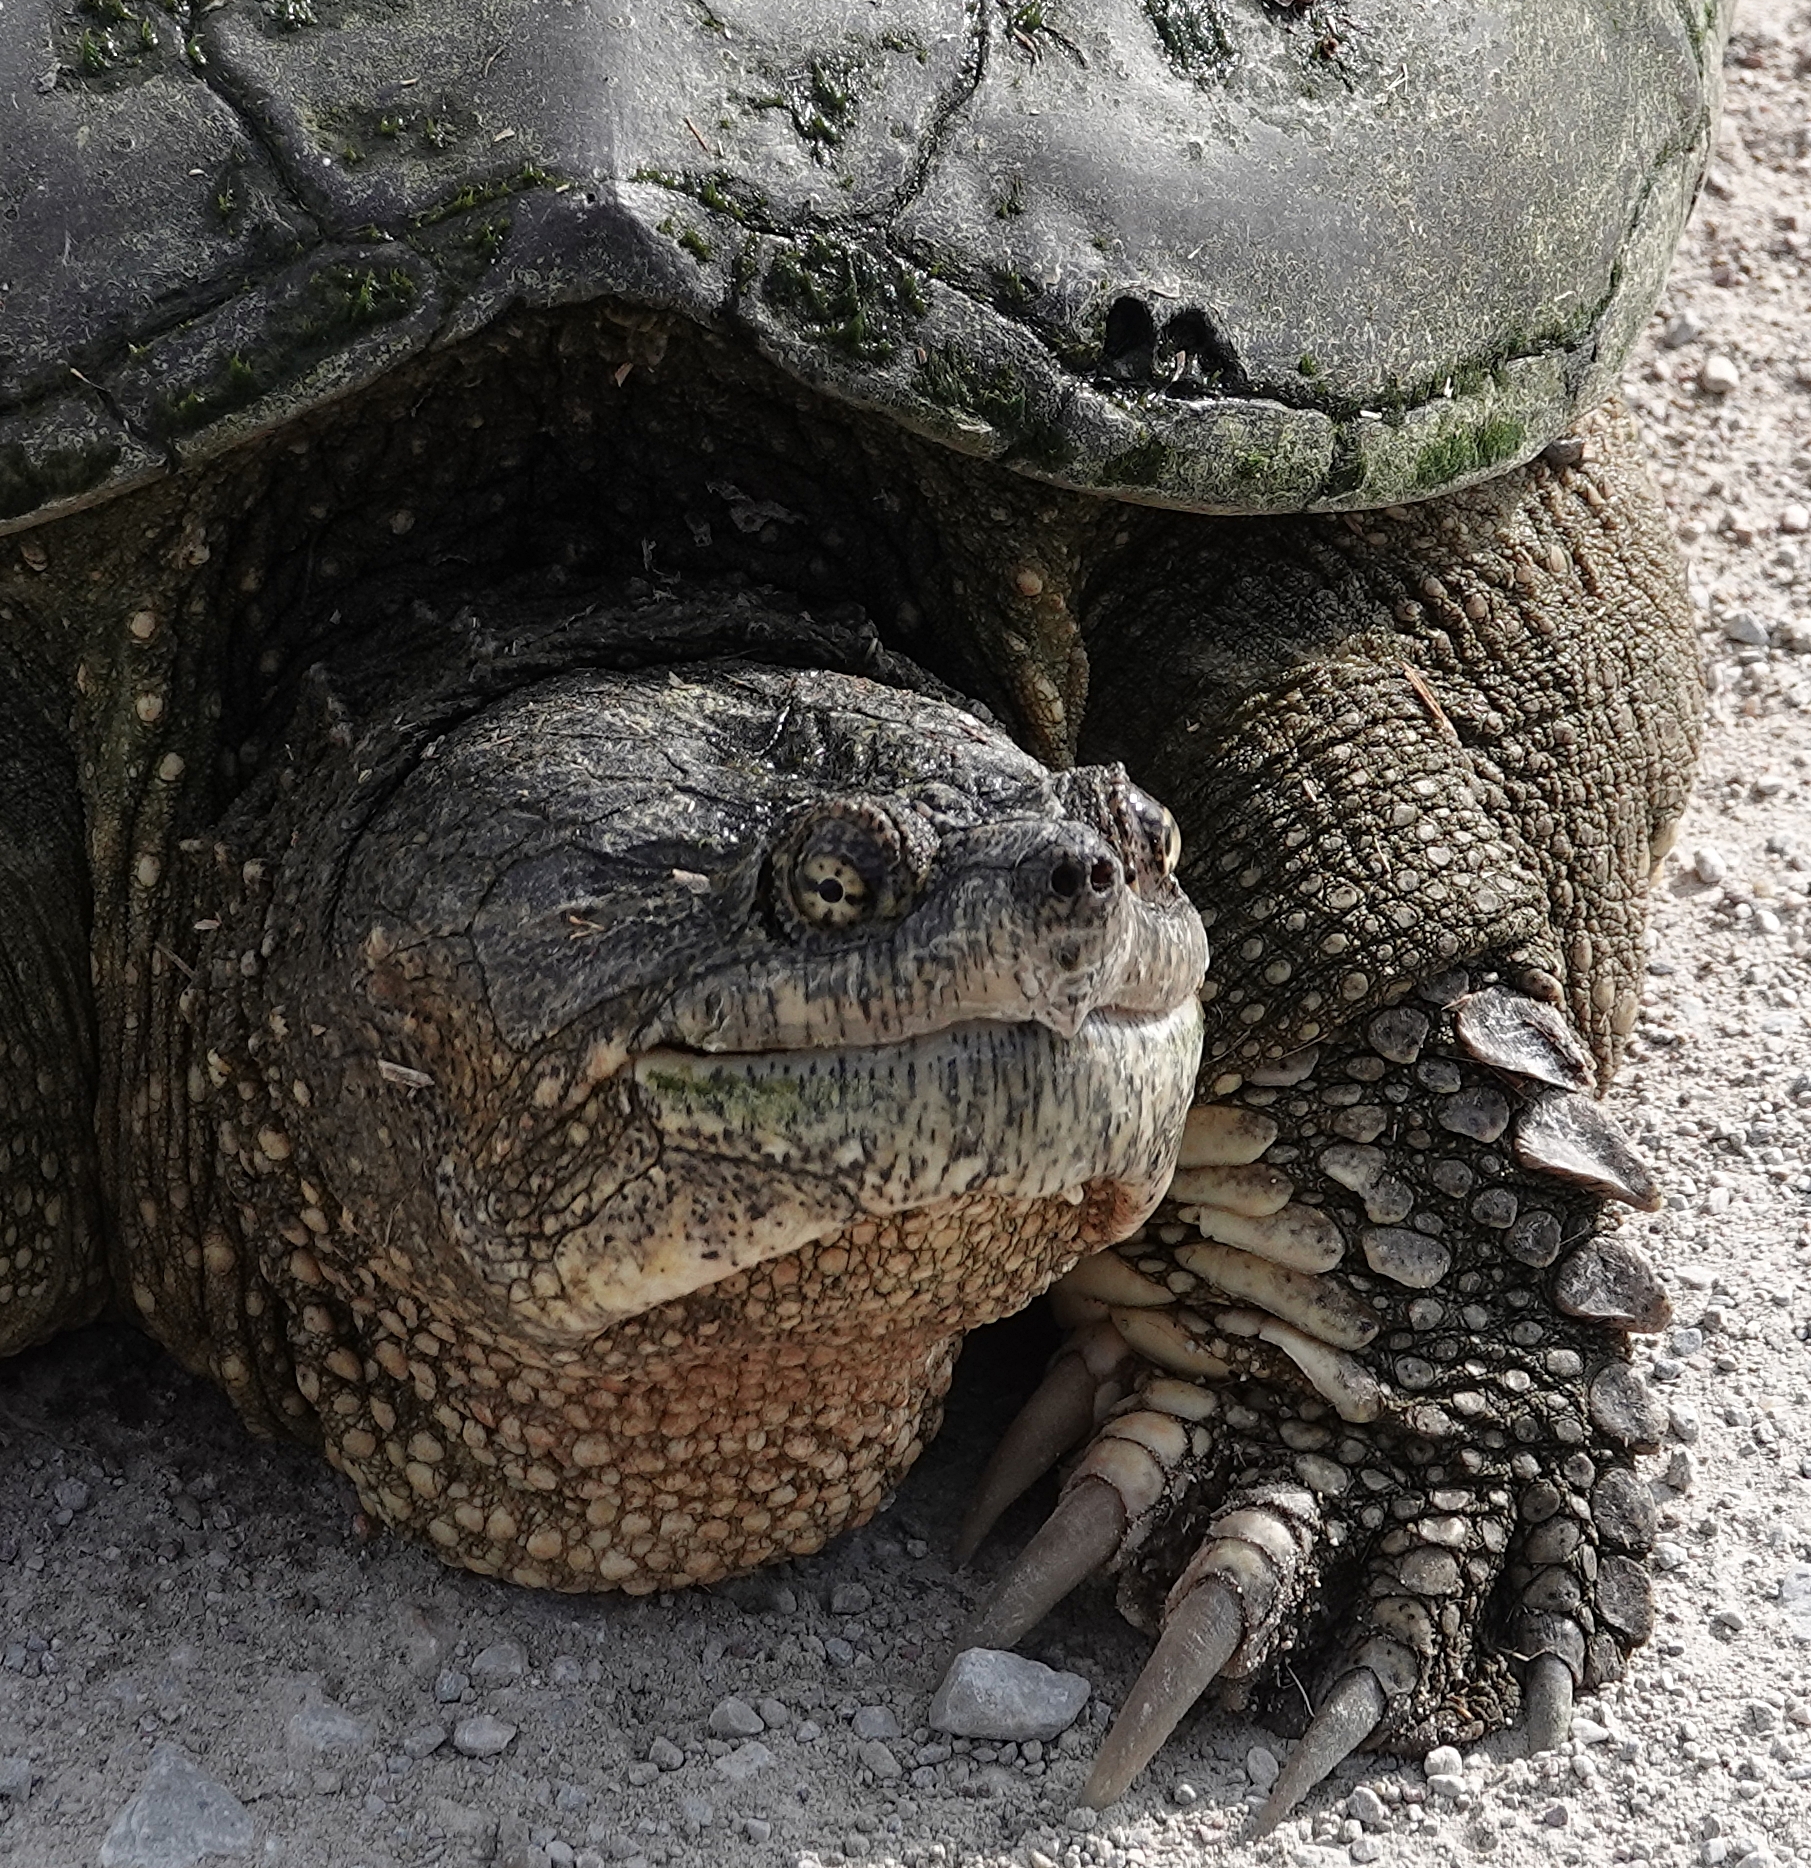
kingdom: Animalia
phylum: Chordata
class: Testudines
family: Chelydridae
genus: Chelydra
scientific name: Chelydra serpentina
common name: Common snapping turtle
